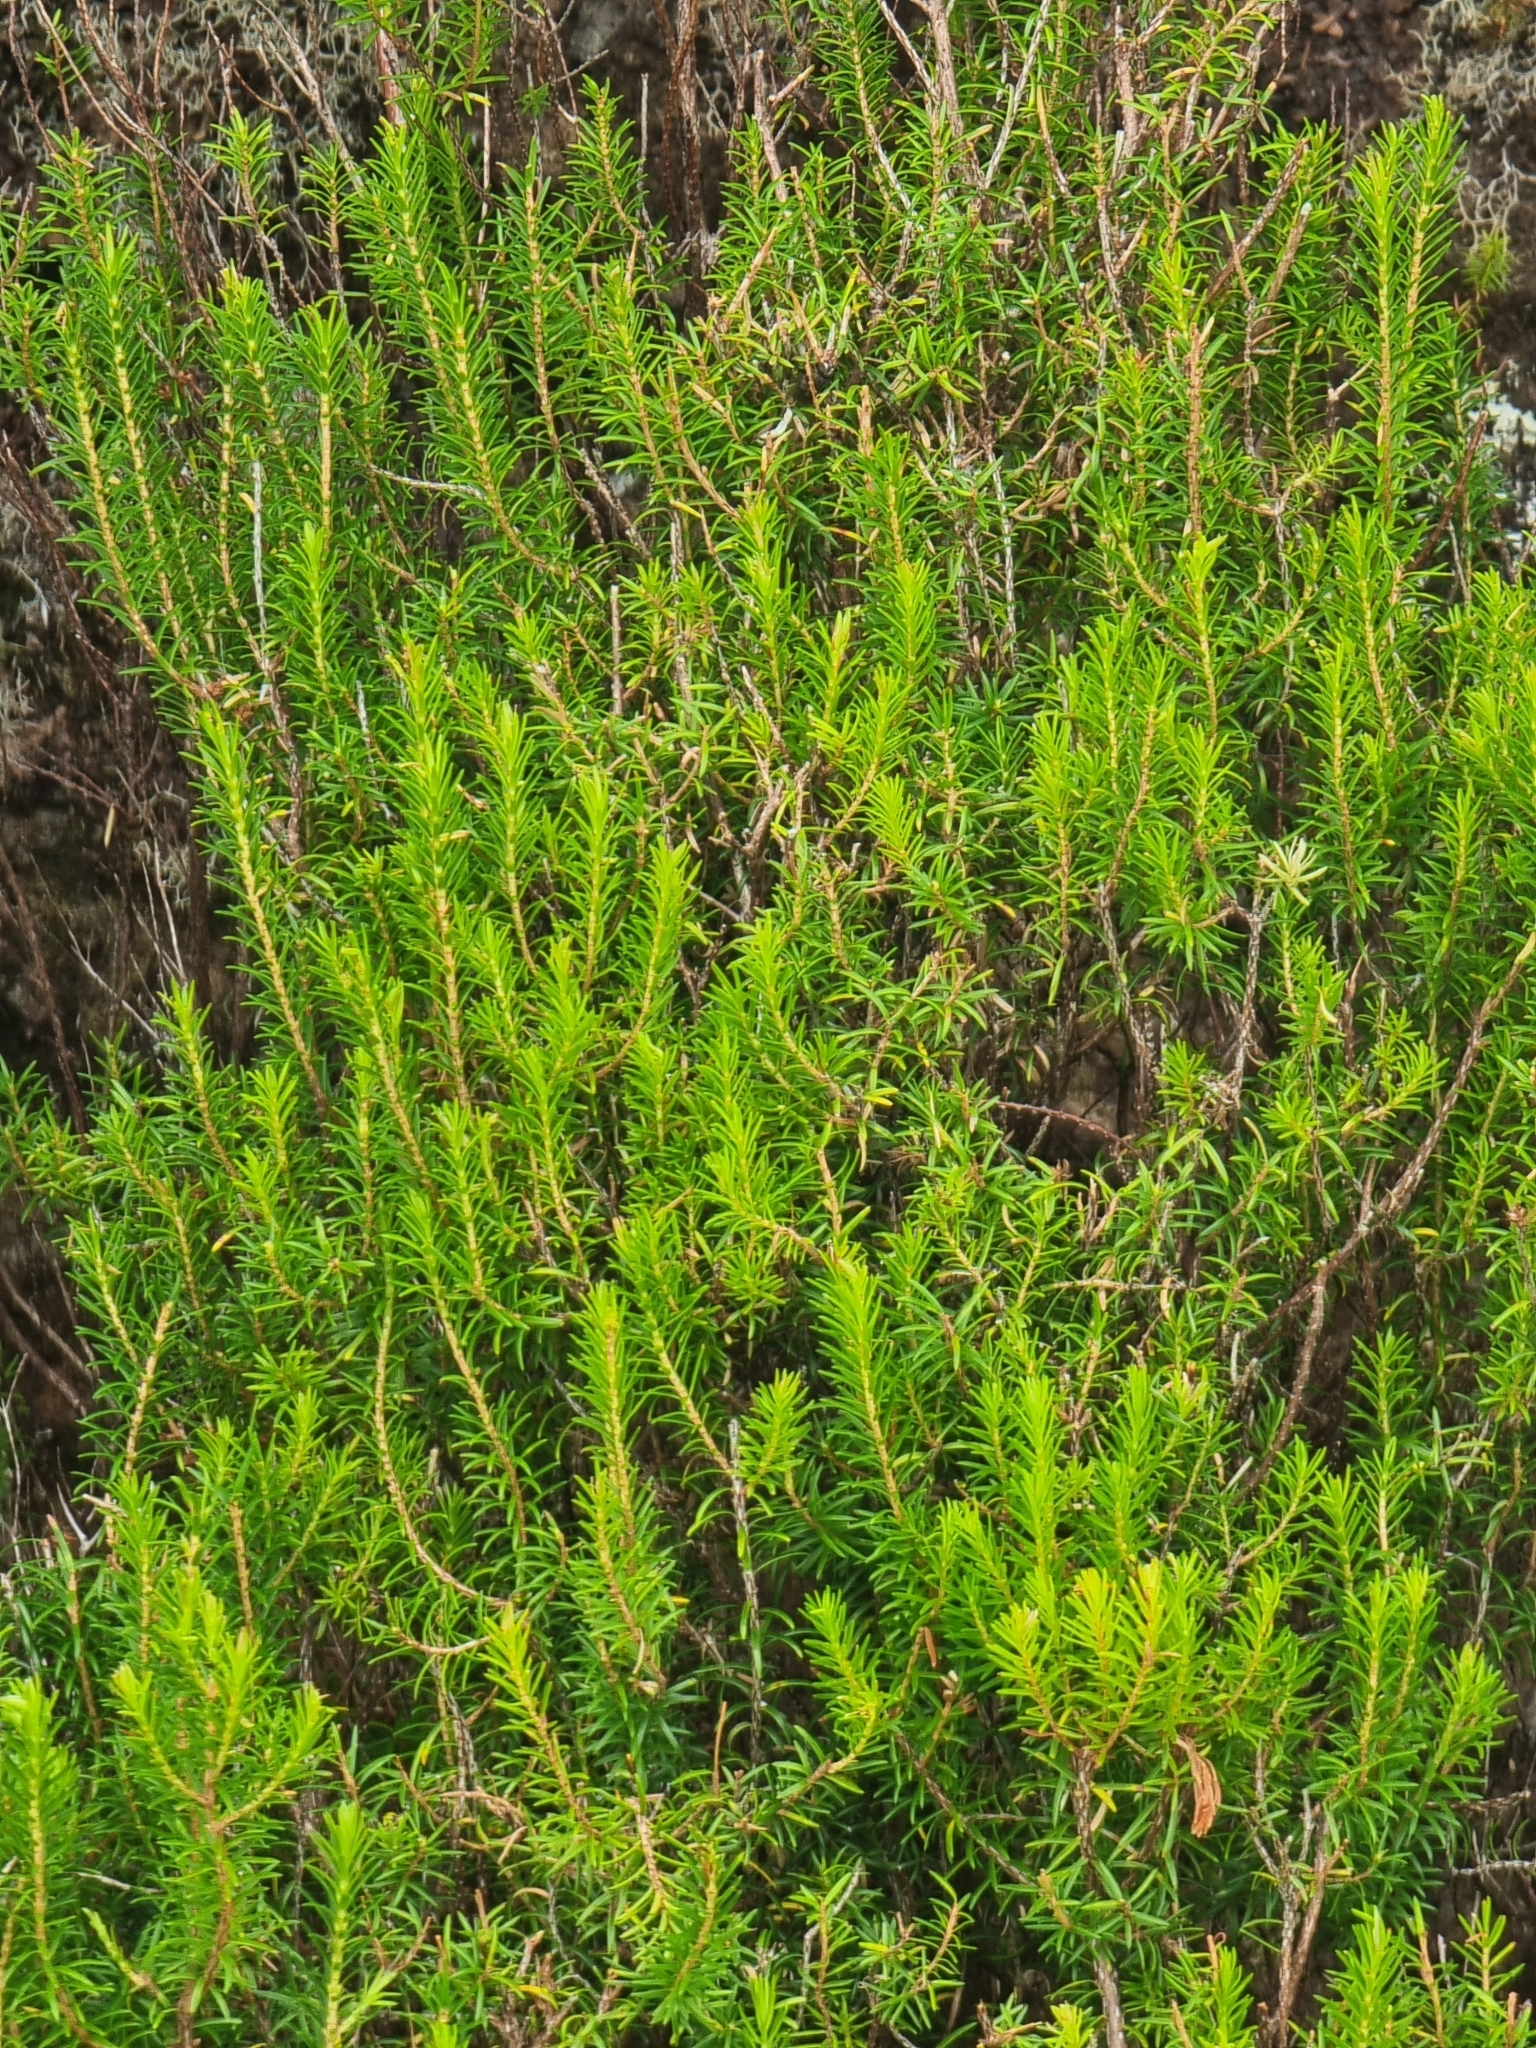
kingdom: Plantae
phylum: Tracheophyta
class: Magnoliopsida
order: Ericales
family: Ericaceae
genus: Erica
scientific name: Erica platycodon
